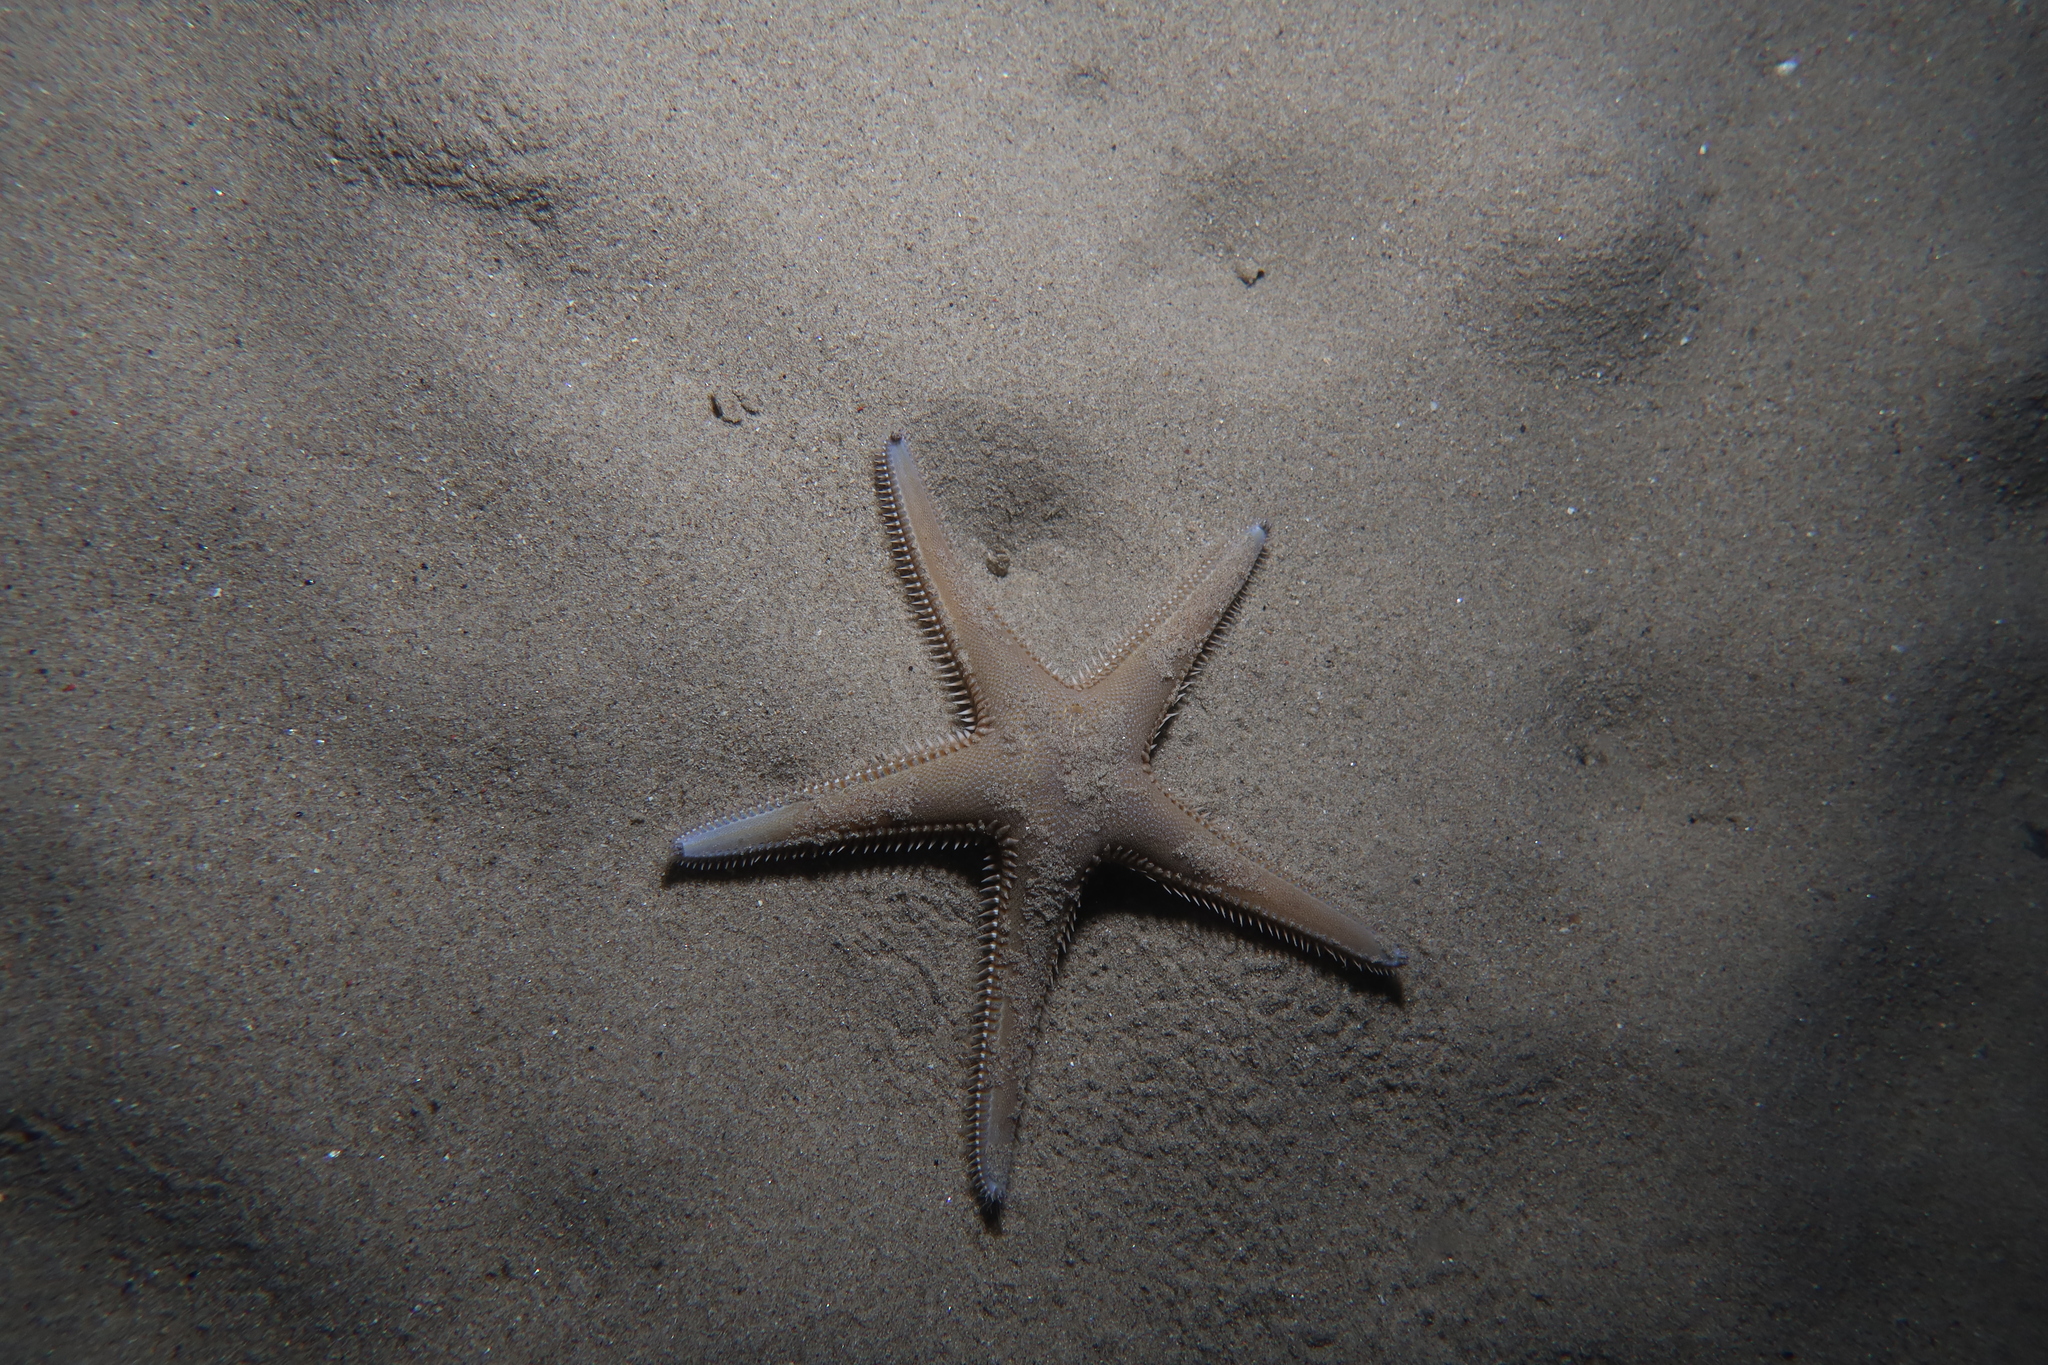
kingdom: Animalia
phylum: Echinodermata
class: Asteroidea
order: Paxillosida
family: Astropectinidae
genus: Astropecten
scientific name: Astropecten platyacanthus
